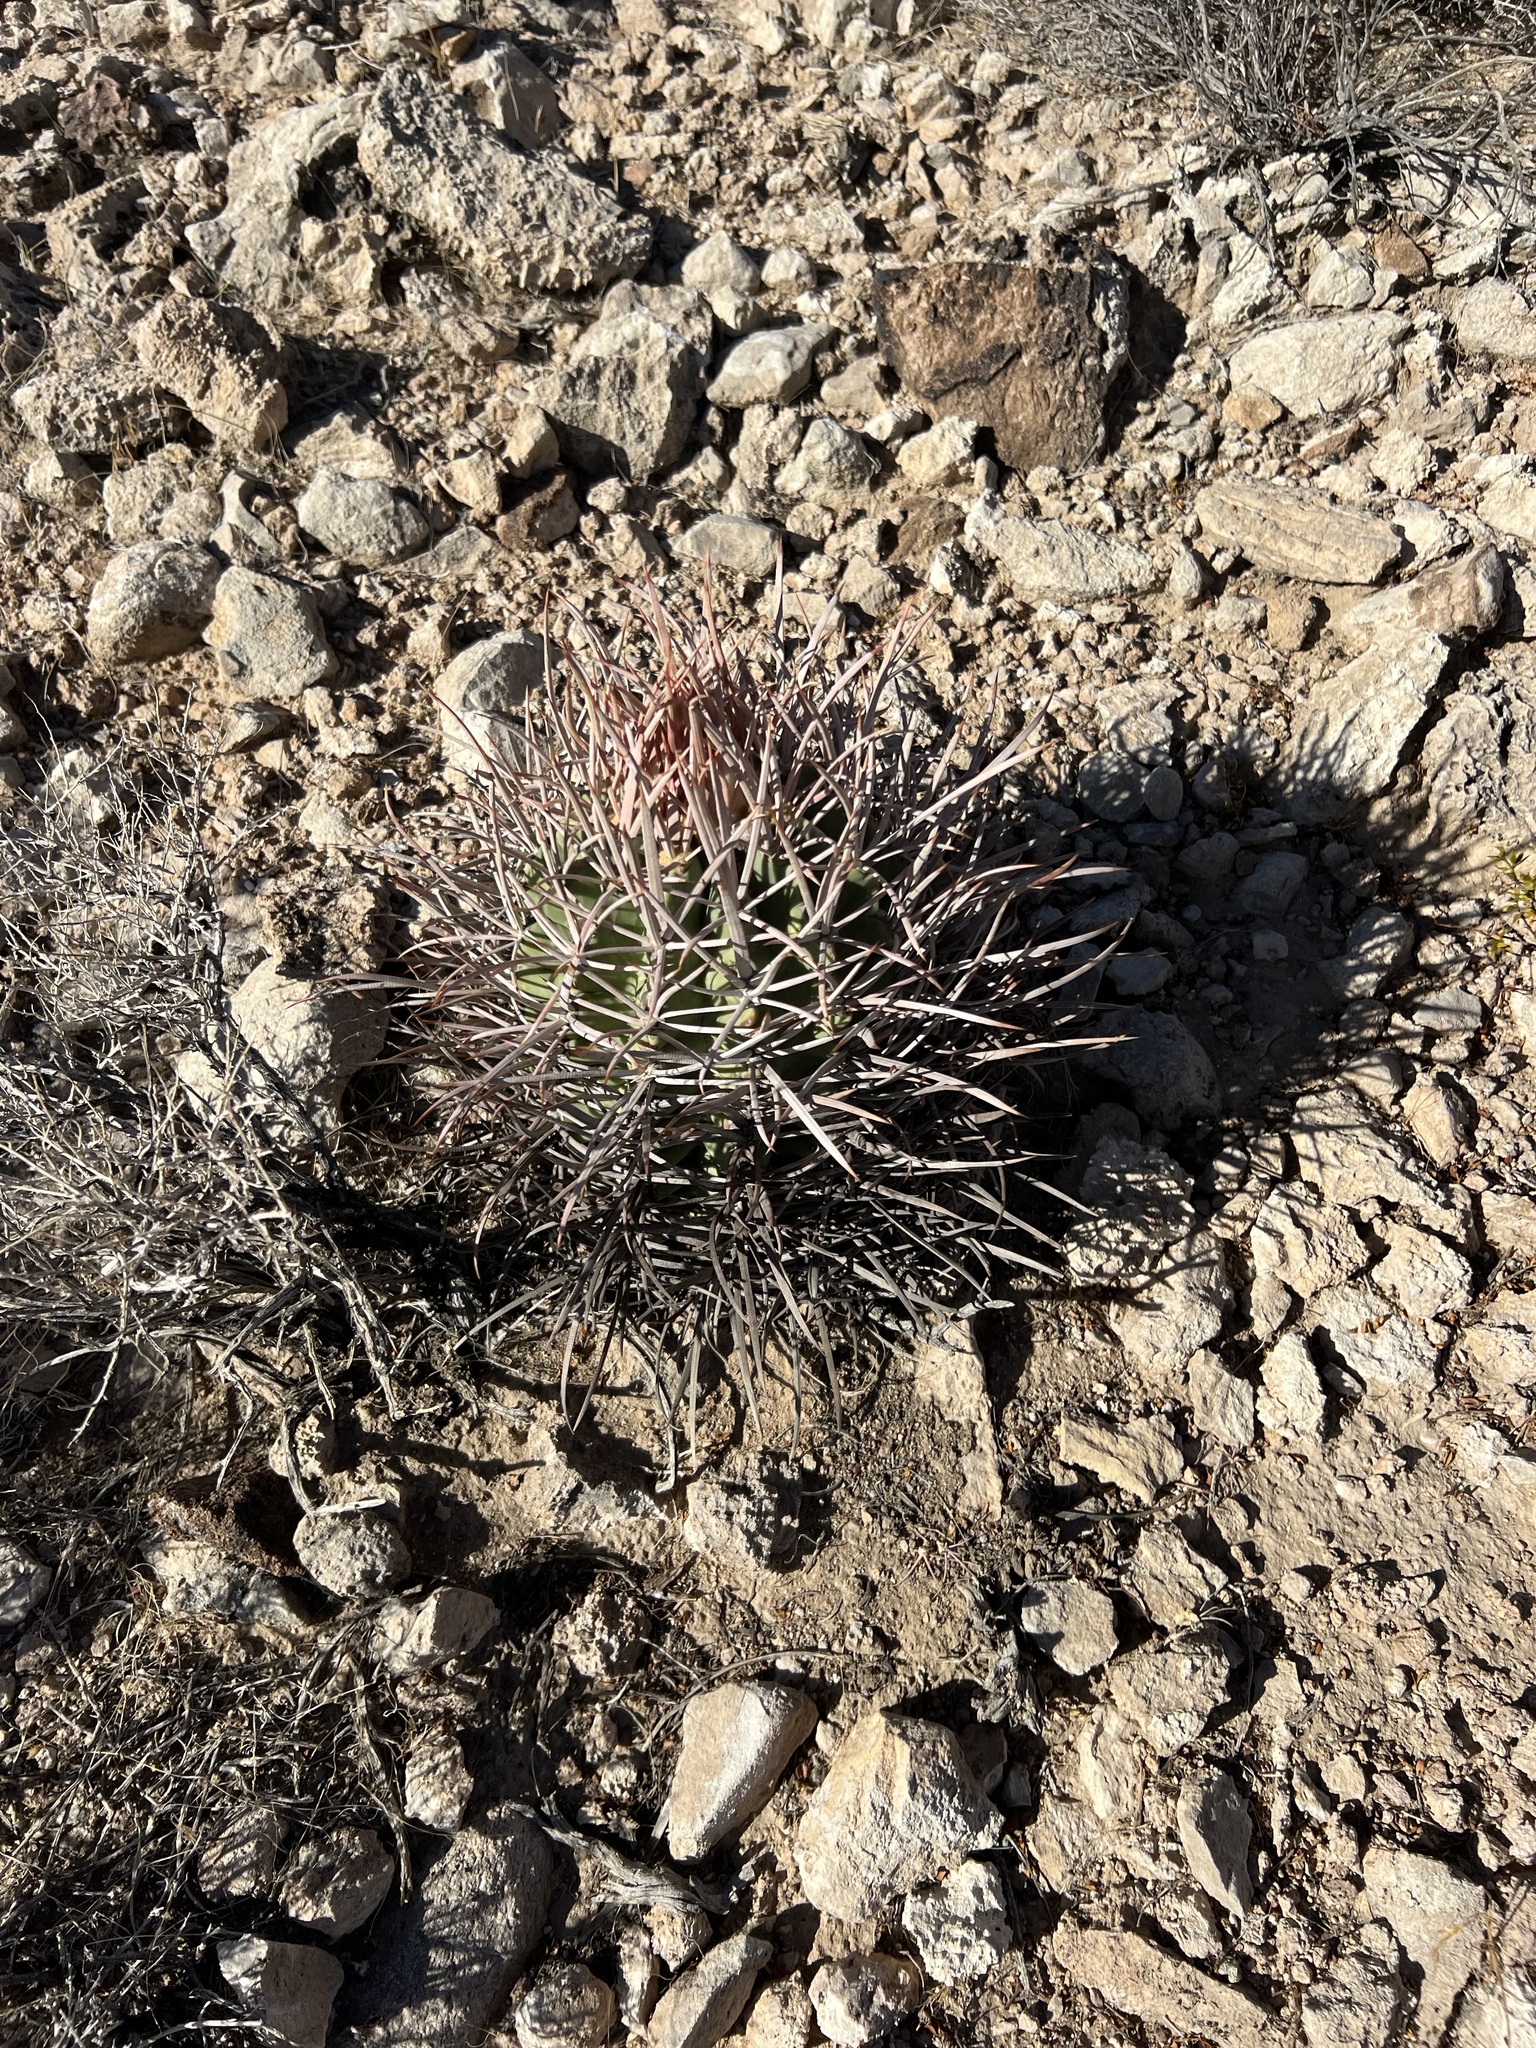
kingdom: Plantae
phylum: Tracheophyta
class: Magnoliopsida
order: Caryophyllales
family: Cactaceae
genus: Echinocactus
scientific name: Echinocactus polycephalus
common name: Cottontop cactus
